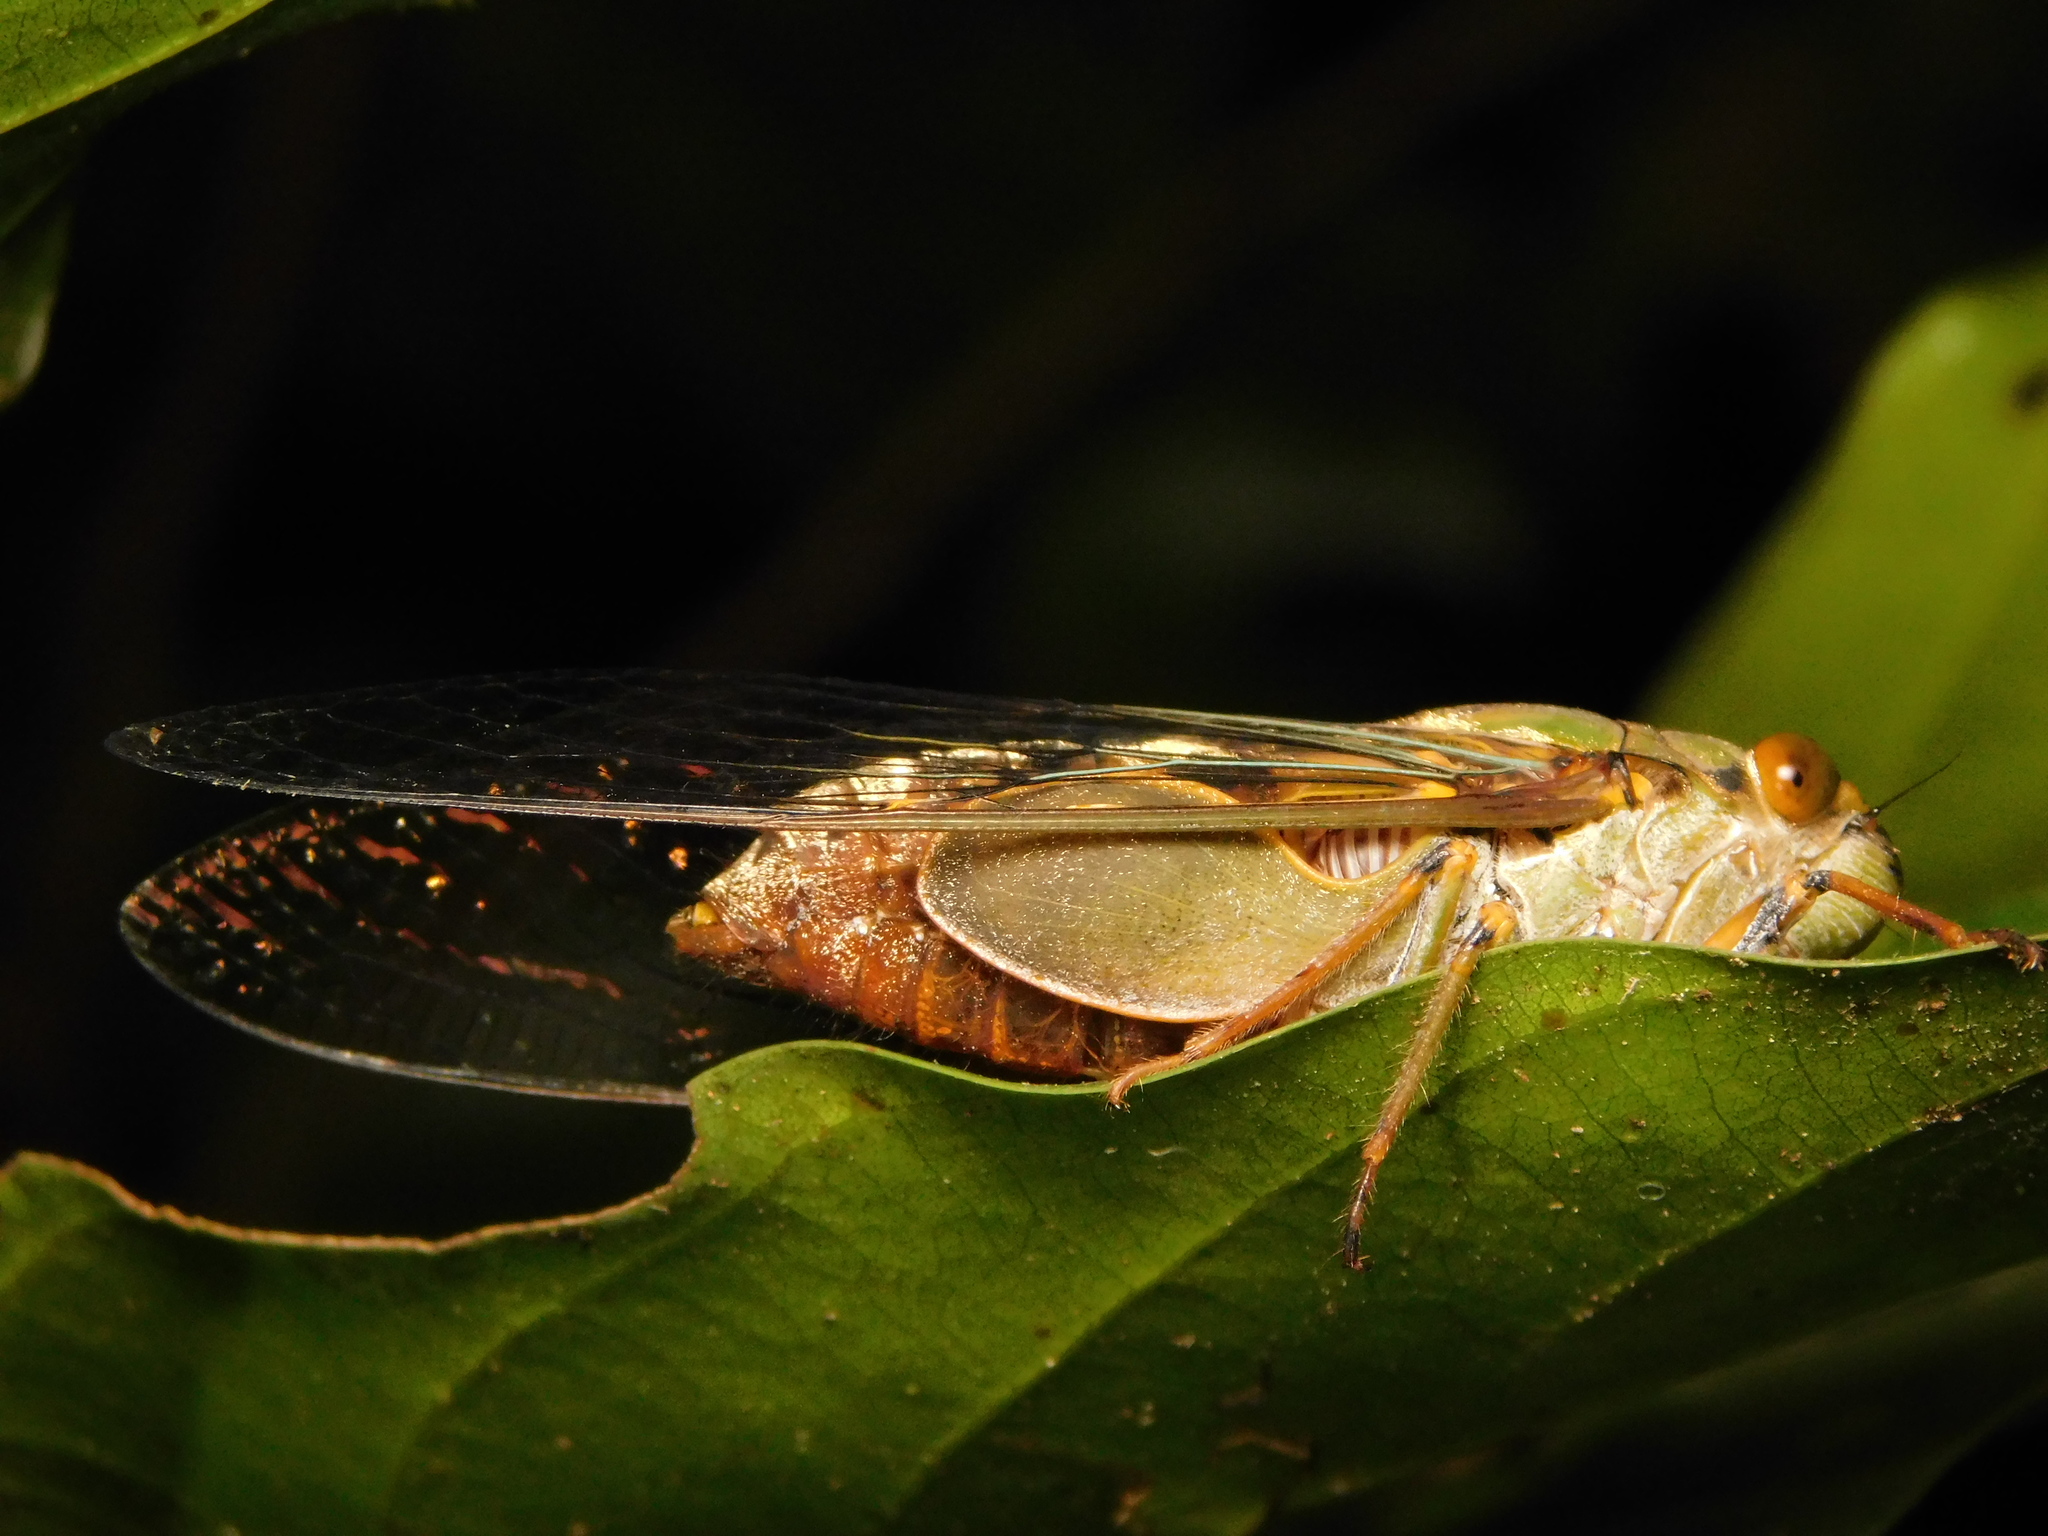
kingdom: Animalia
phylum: Arthropoda
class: Insecta
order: Hemiptera
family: Cicadidae
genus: Platylomia
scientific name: Platylomia larus
